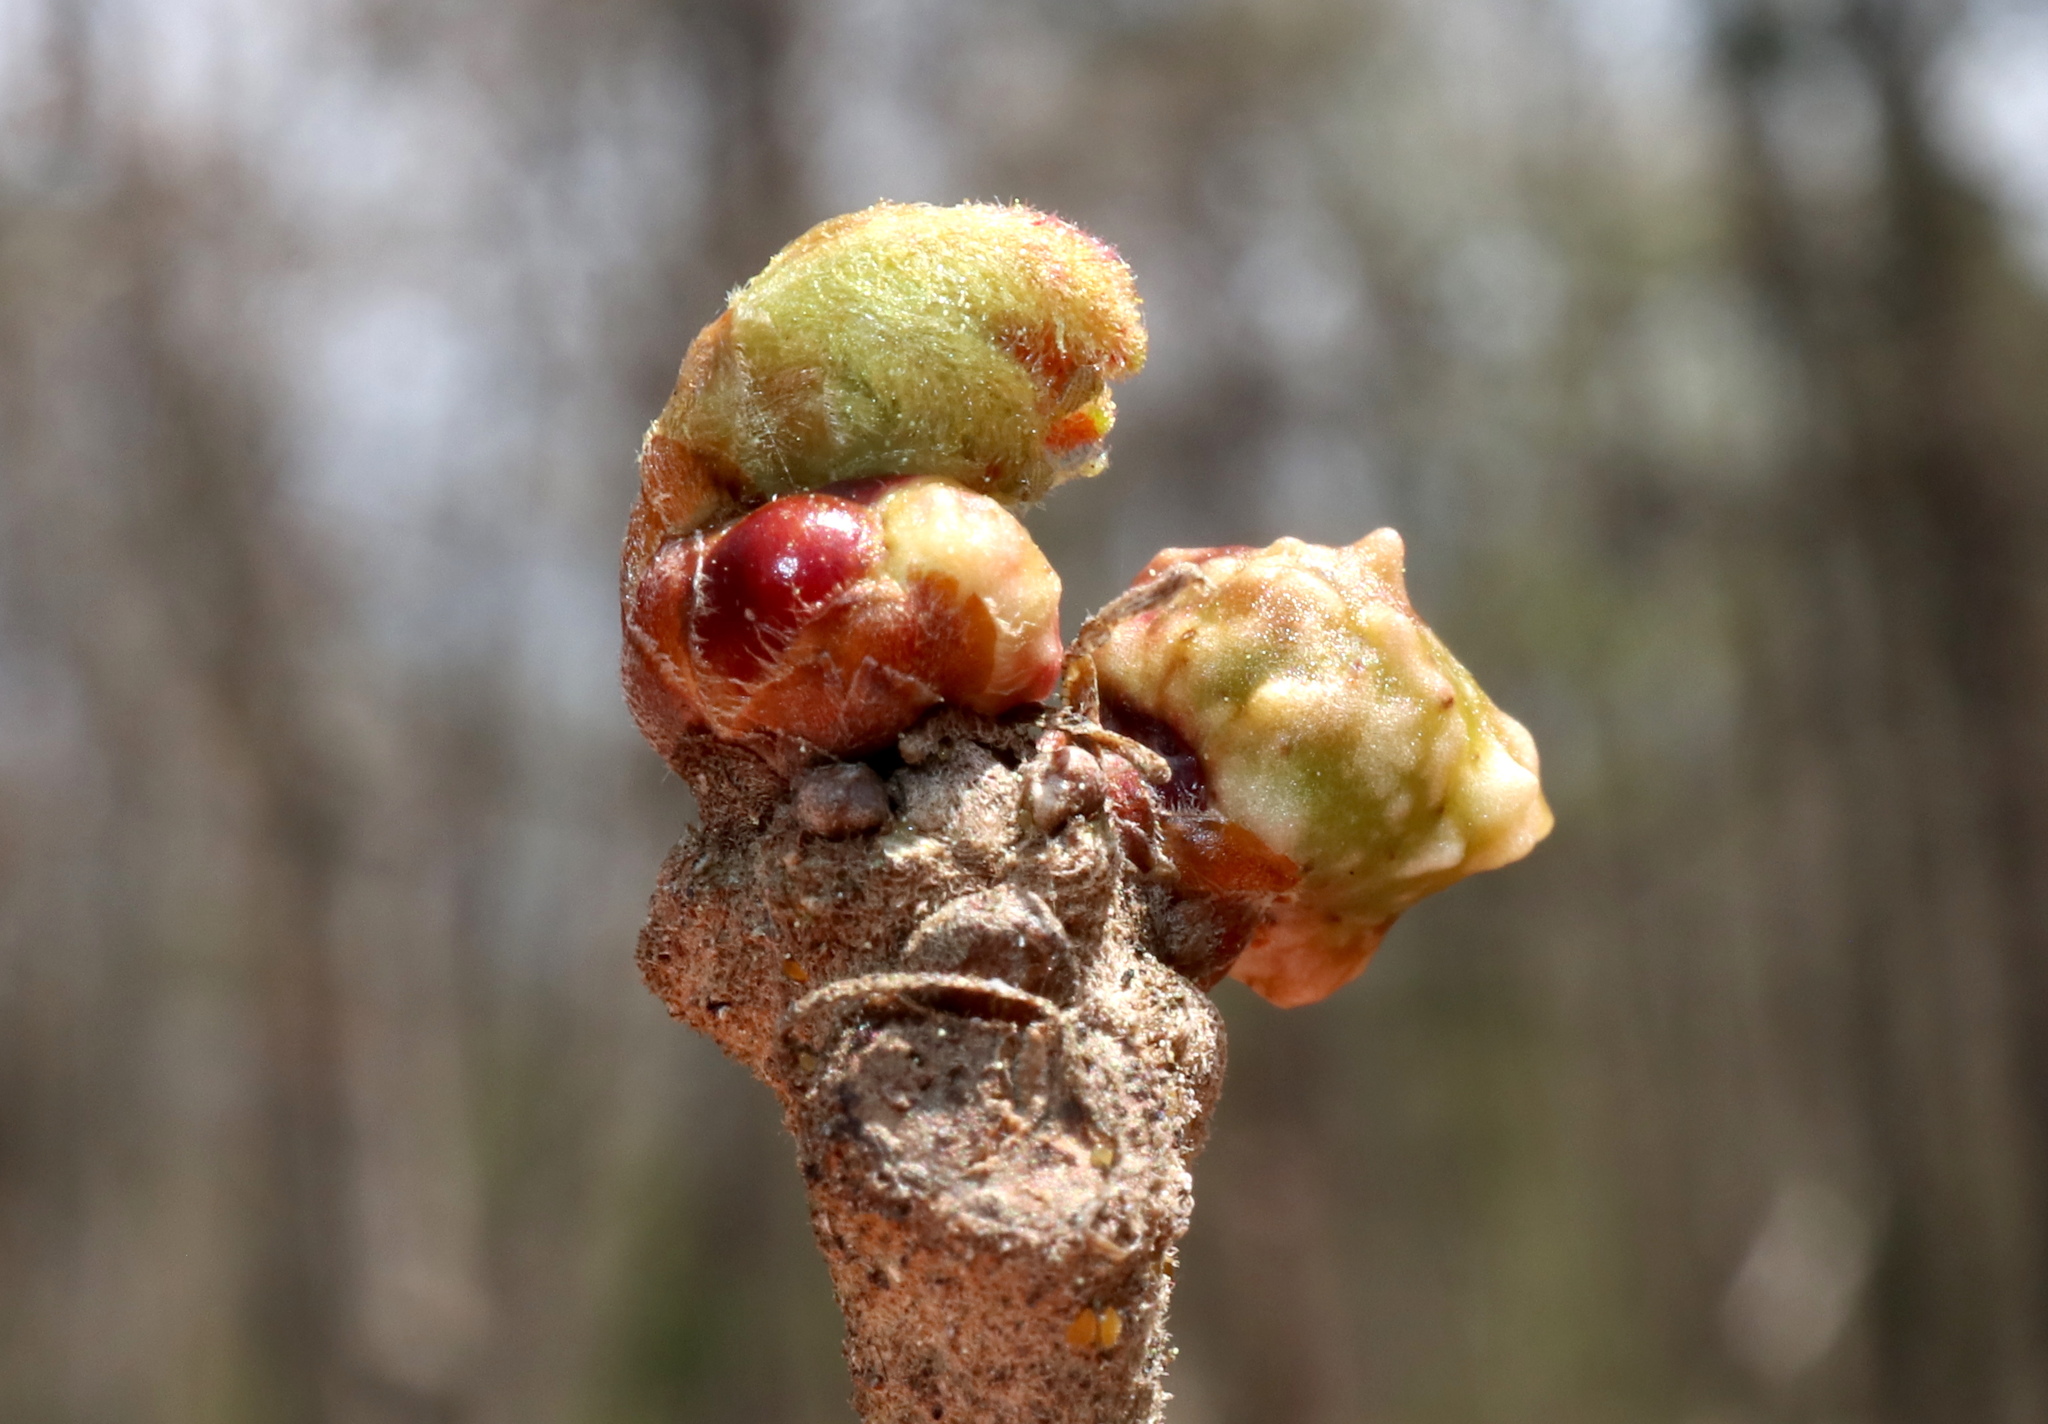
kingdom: Animalia
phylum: Arthropoda
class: Insecta
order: Hymenoptera
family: Cynipidae
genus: Neuroterus
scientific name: Neuroterus
